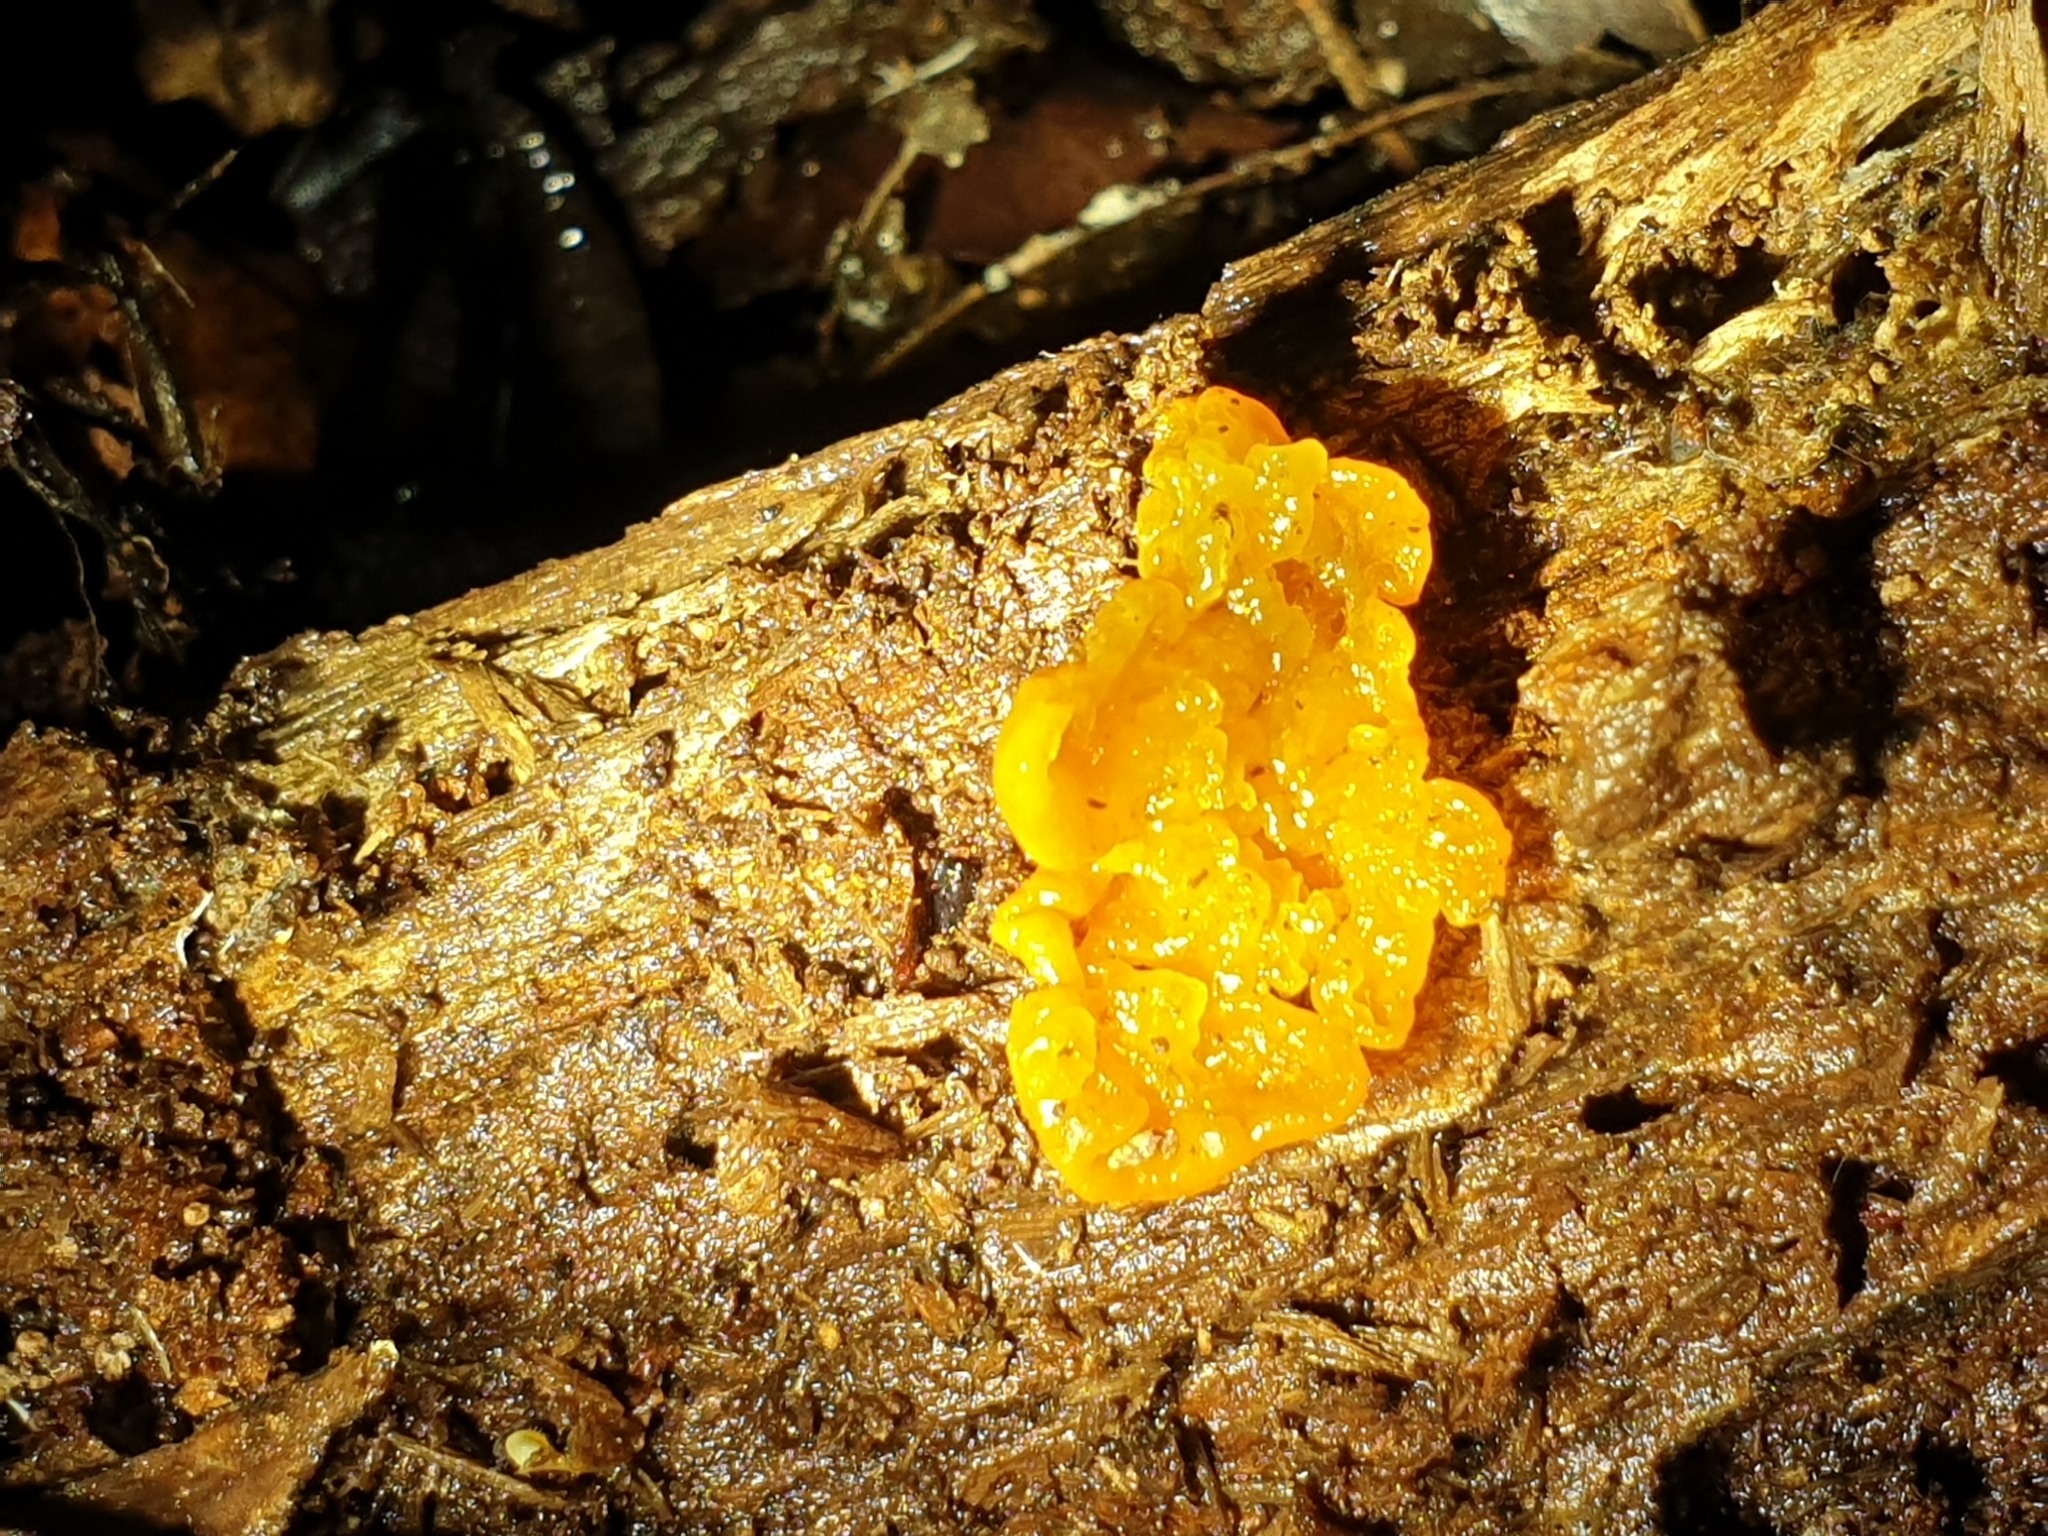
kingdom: Fungi
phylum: Basidiomycota
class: Tremellomycetes
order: Tremellales
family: Tremellaceae
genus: Tremella
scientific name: Tremella mesenterica
